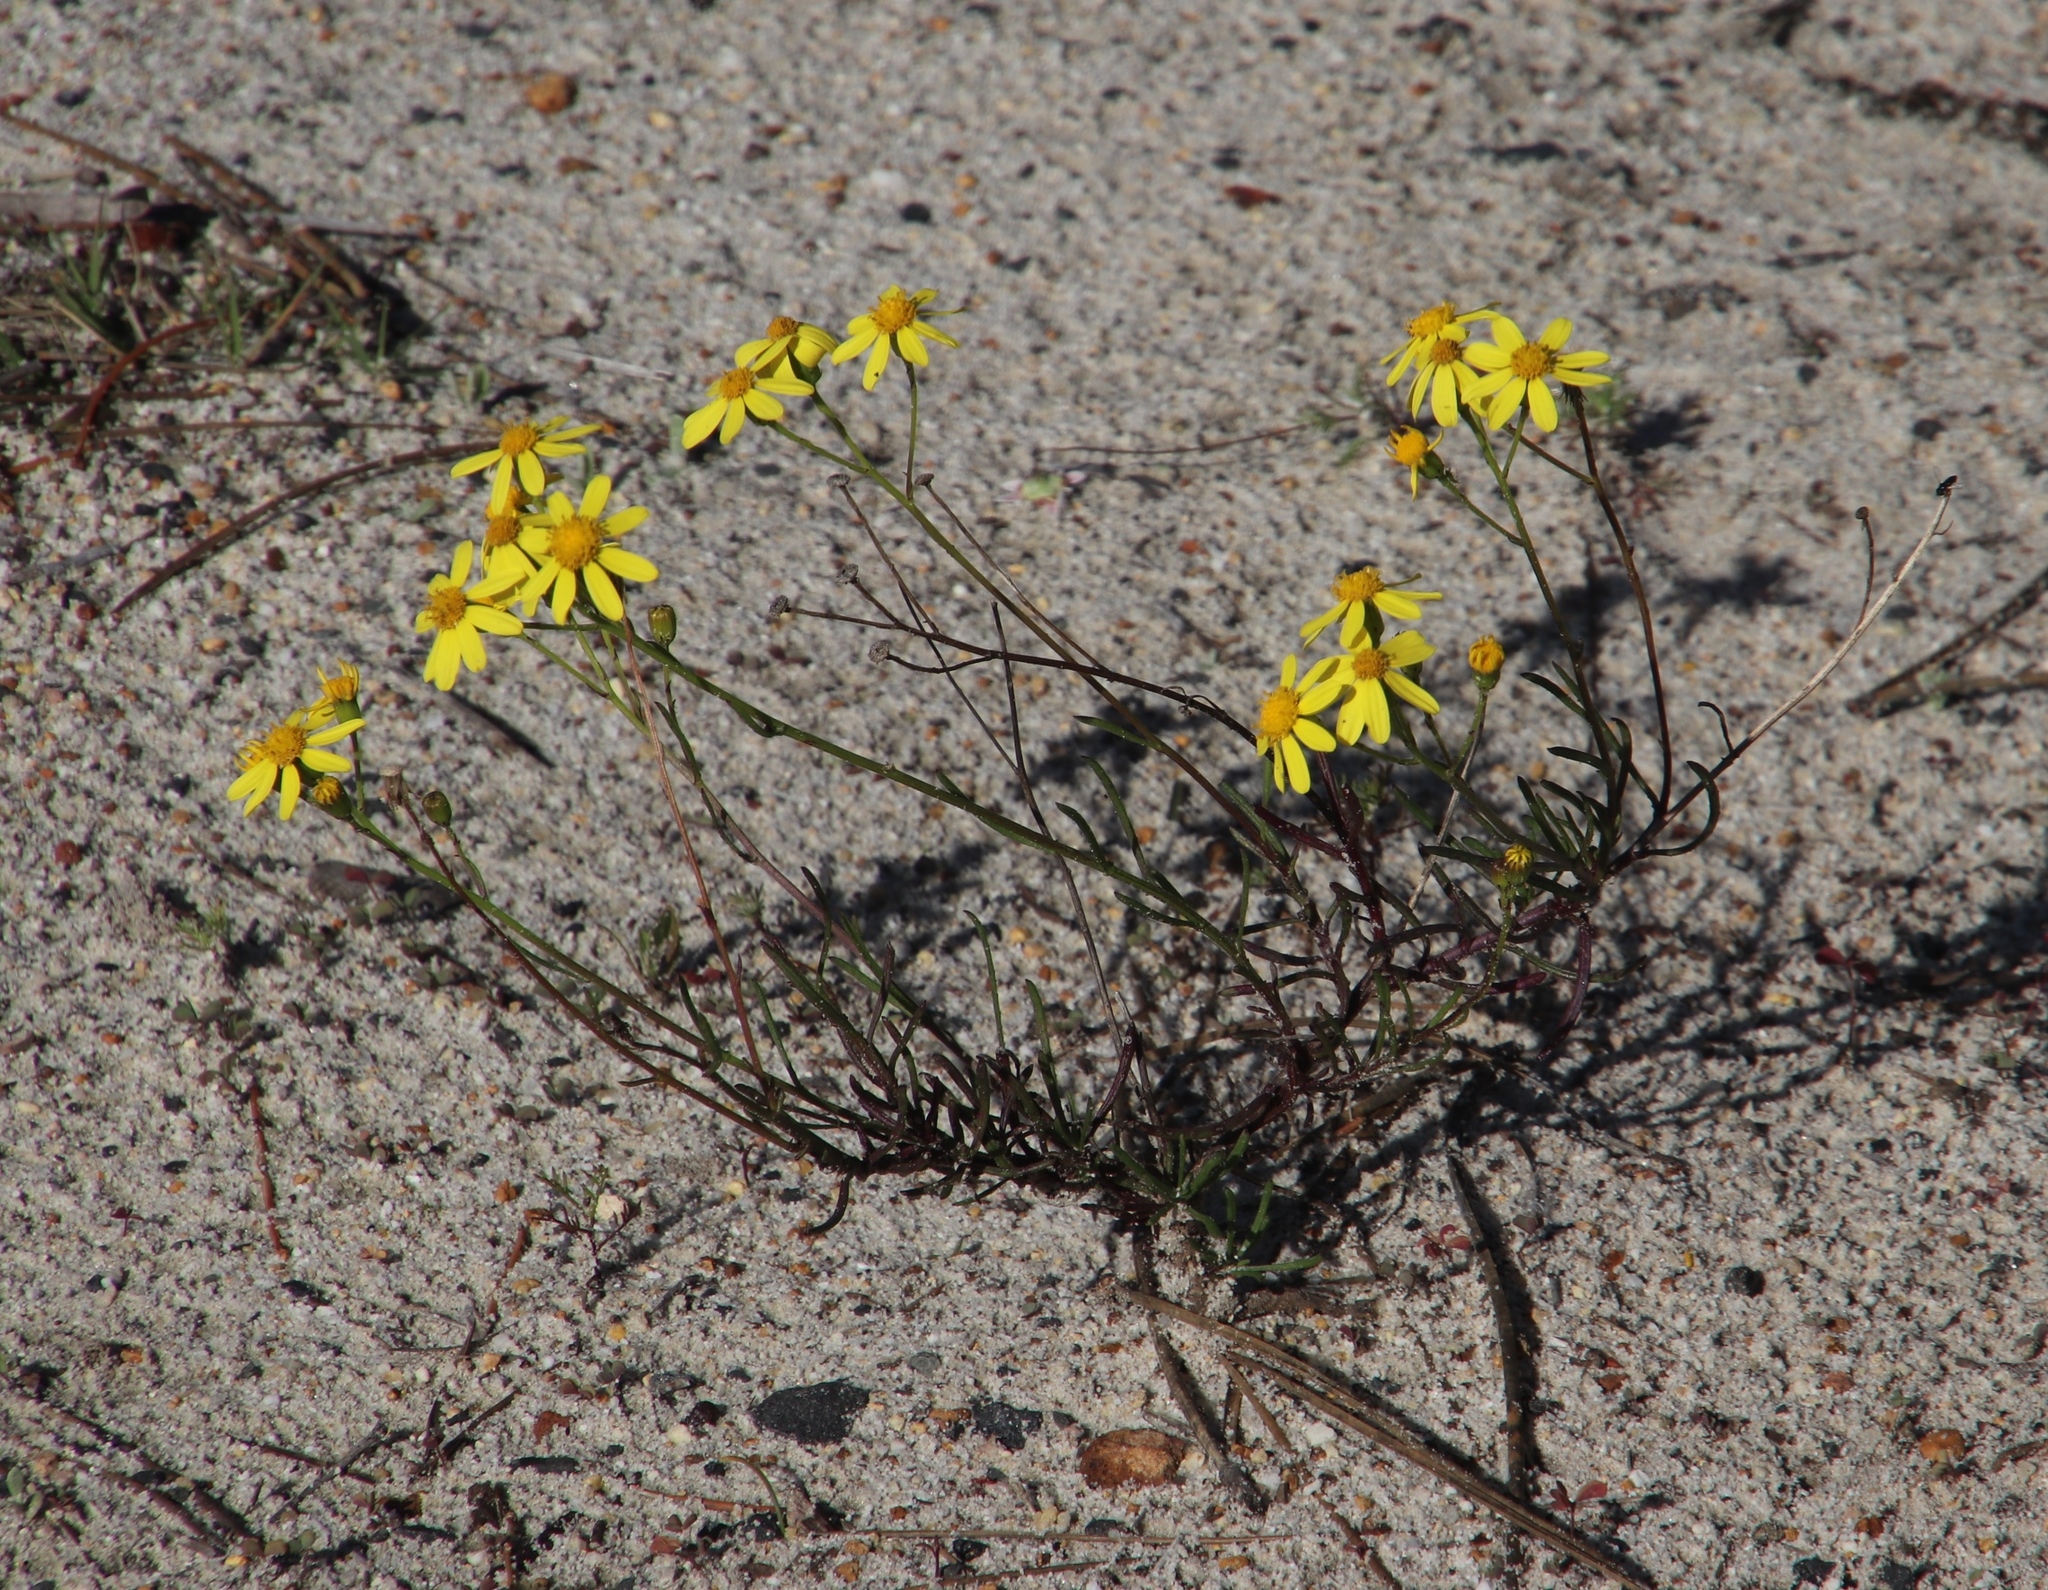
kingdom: Plantae
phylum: Tracheophyta
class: Magnoliopsida
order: Asterales
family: Asteraceae
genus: Senecio
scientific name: Senecio burchellii
